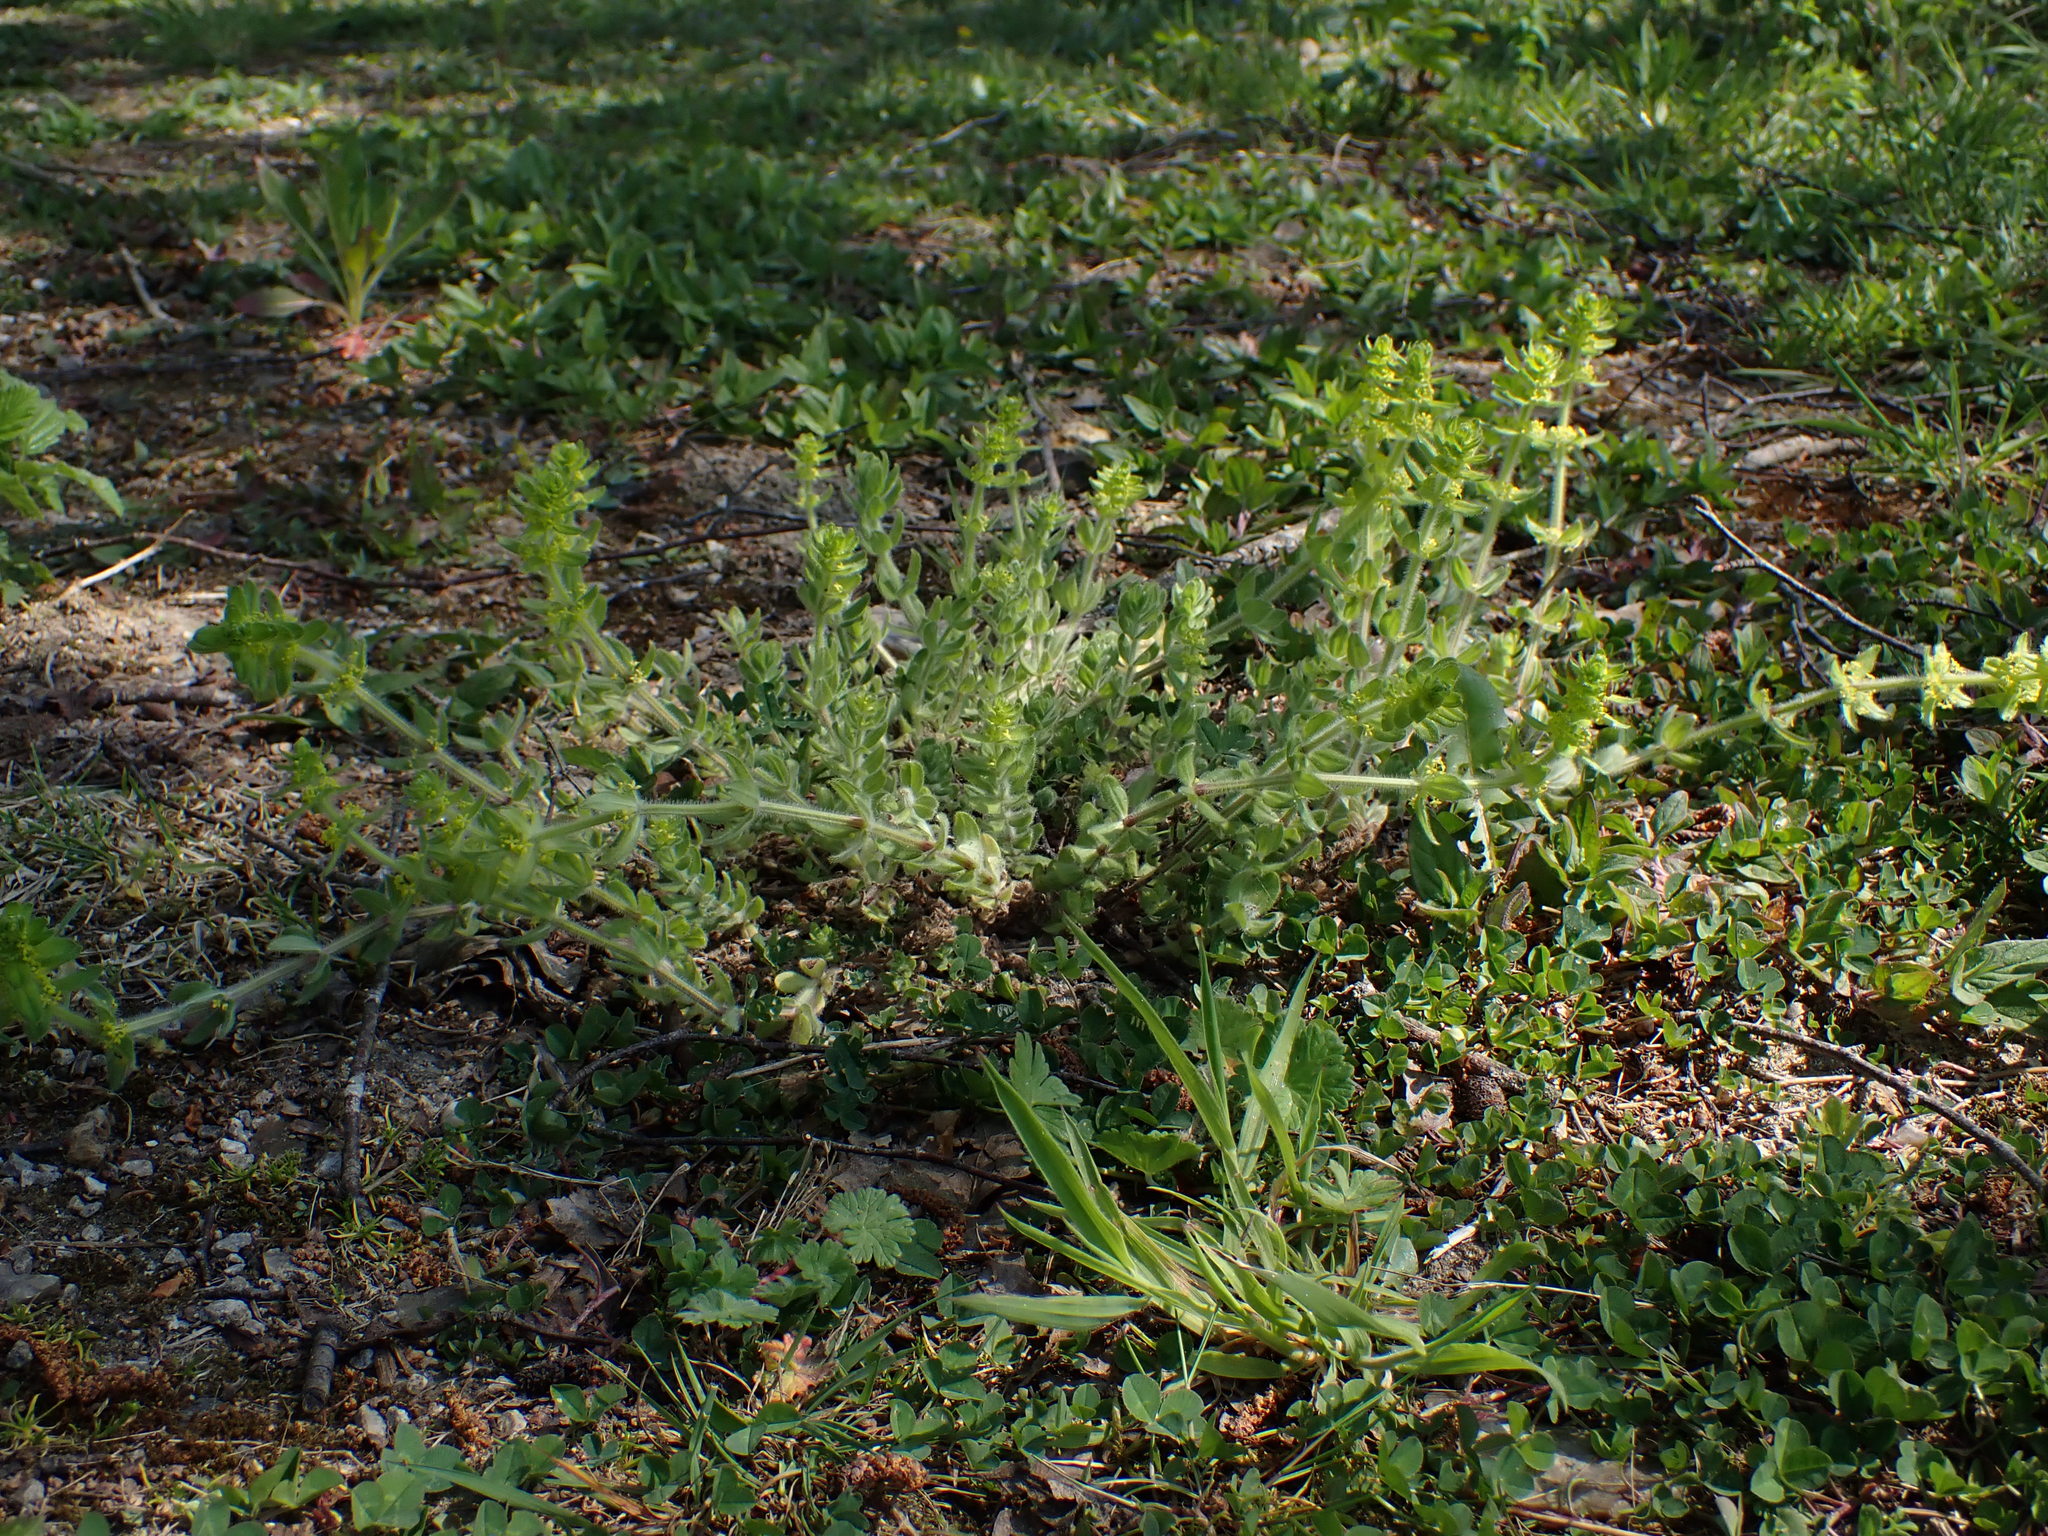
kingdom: Plantae
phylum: Tracheophyta
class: Magnoliopsida
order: Gentianales
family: Rubiaceae
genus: Cruciata
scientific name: Cruciata laevipes
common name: Crosswort
